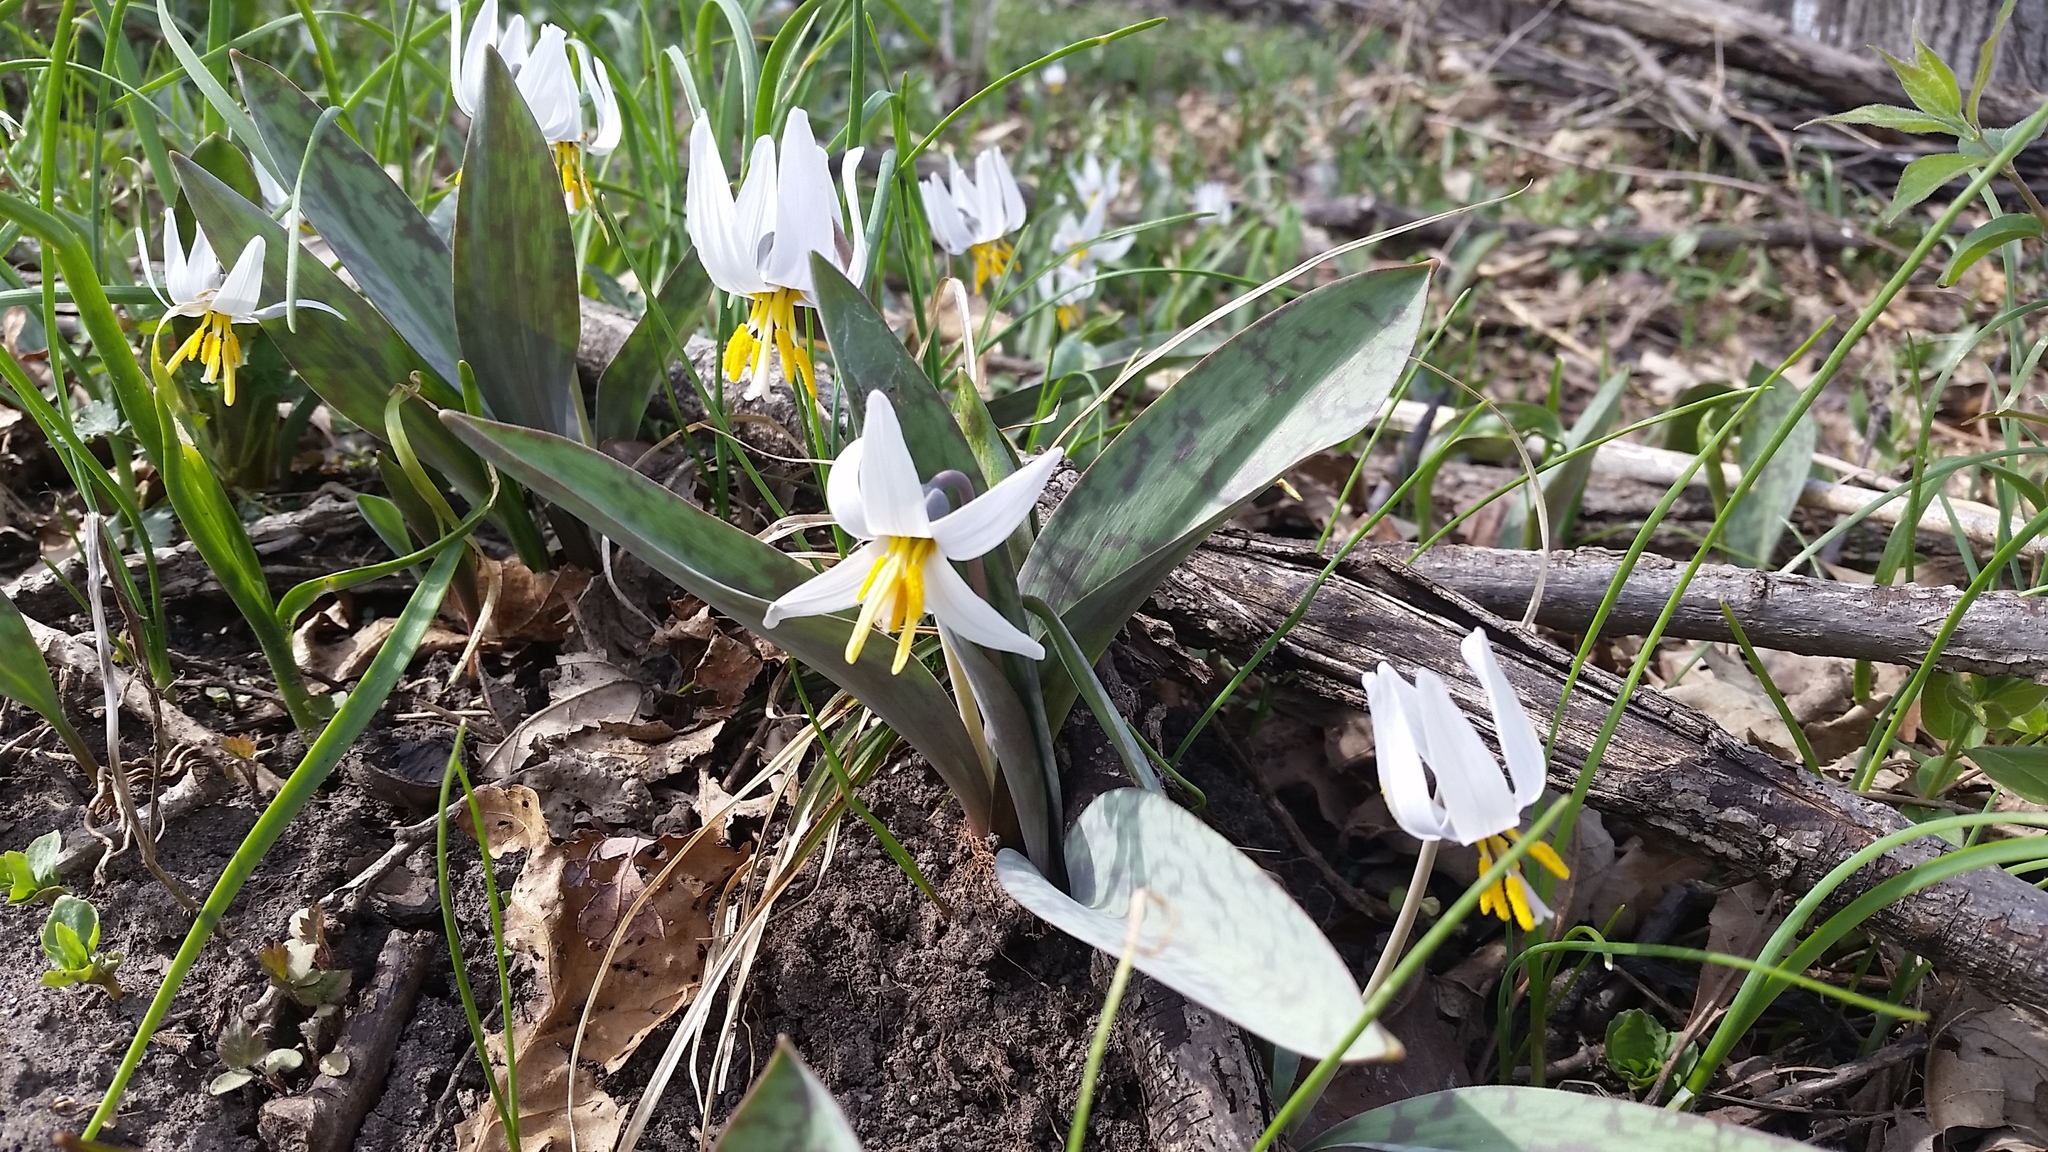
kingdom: Plantae
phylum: Tracheophyta
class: Liliopsida
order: Liliales
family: Liliaceae
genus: Erythronium
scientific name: Erythronium albidum
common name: White trout-lily
